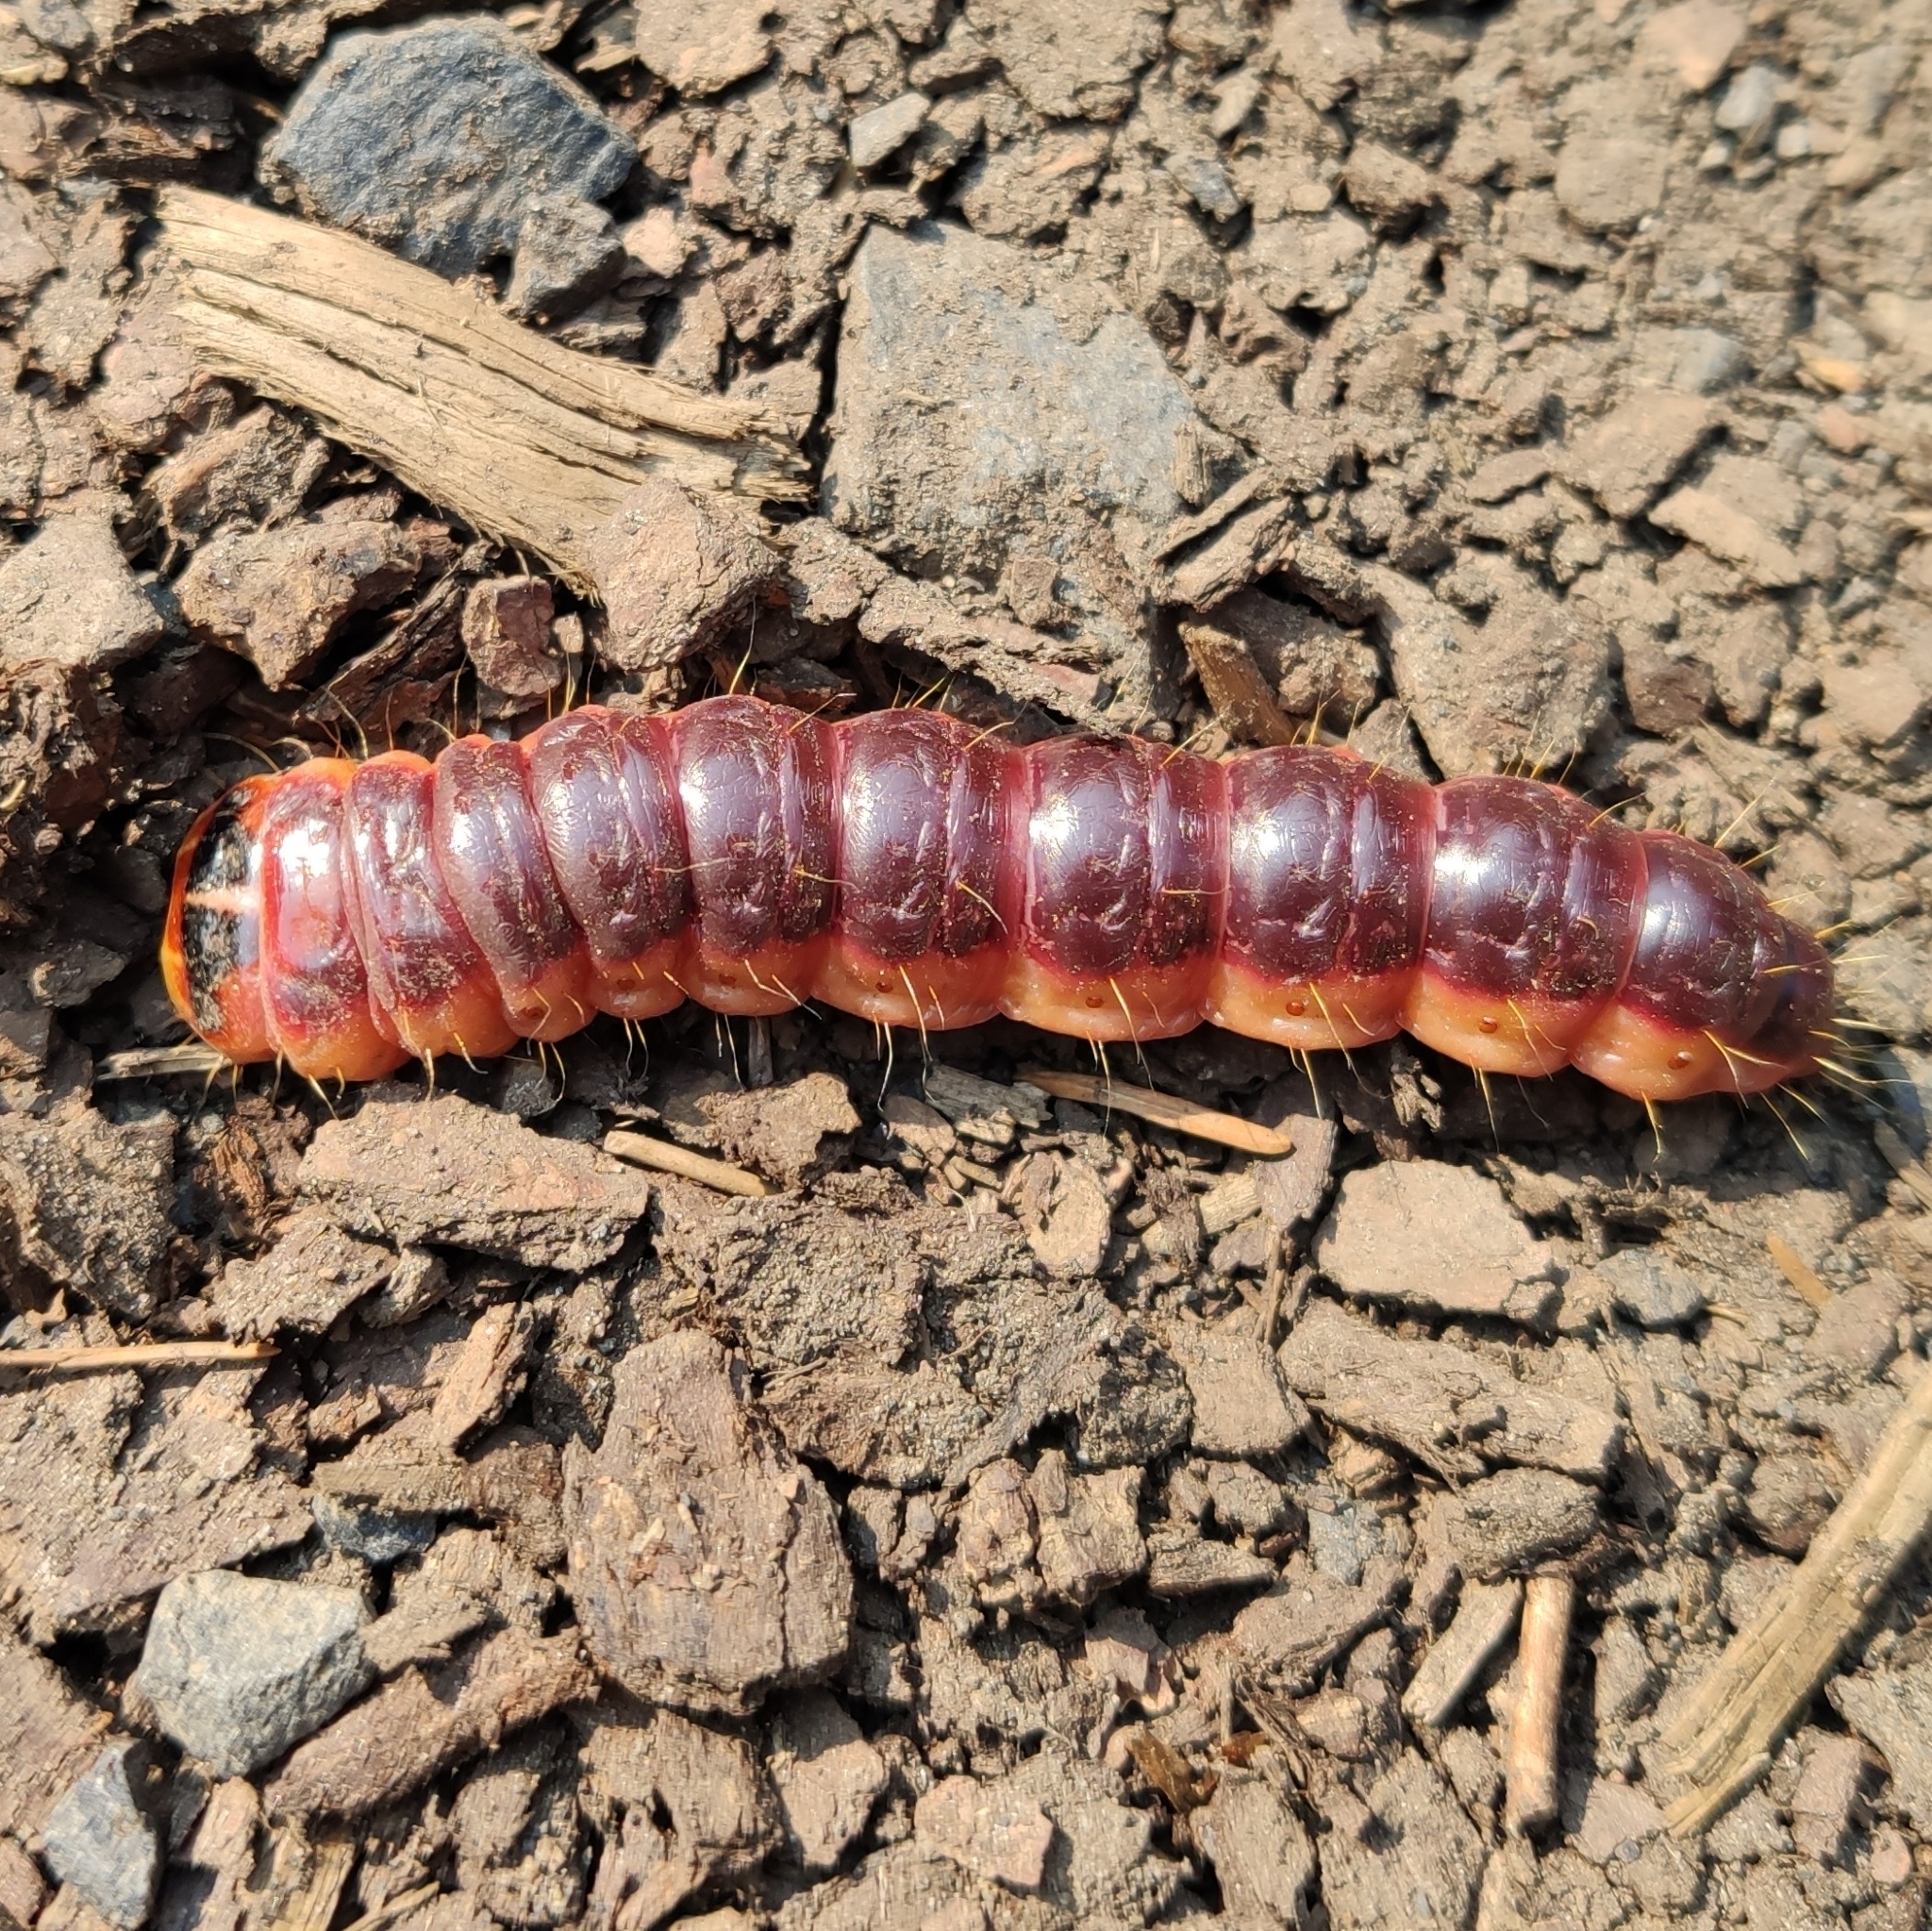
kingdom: Animalia
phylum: Arthropoda
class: Insecta
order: Lepidoptera
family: Cossidae
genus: Cossus
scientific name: Cossus cossus
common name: Goat moth
